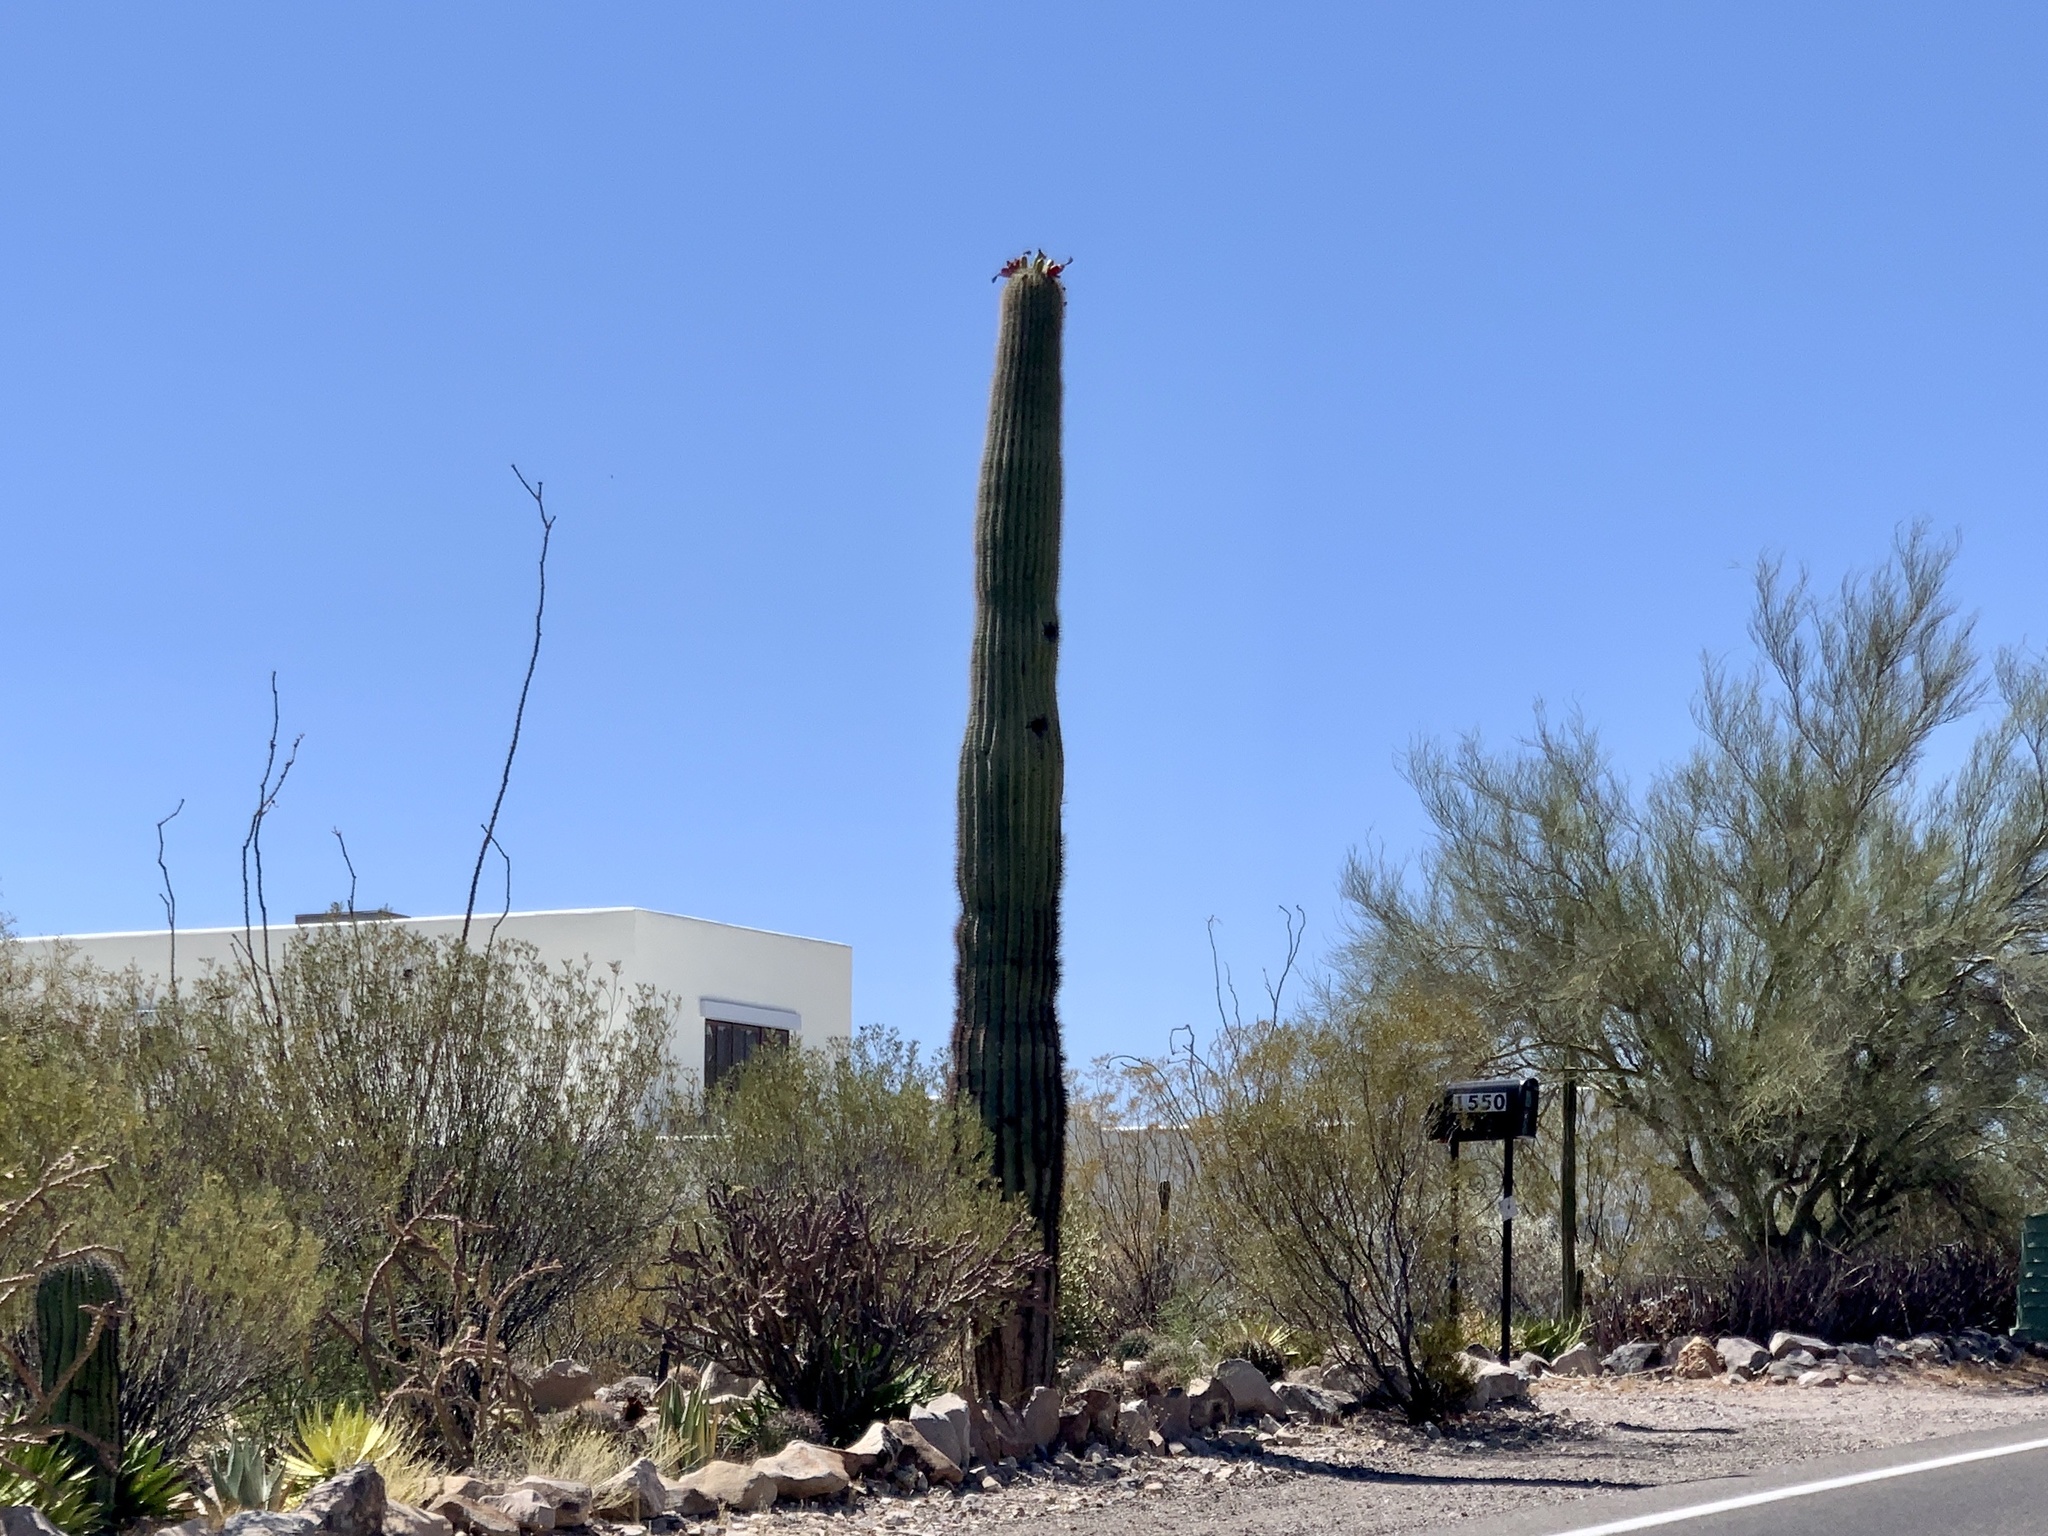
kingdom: Plantae
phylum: Tracheophyta
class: Magnoliopsida
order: Caryophyllales
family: Cactaceae
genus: Carnegiea
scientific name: Carnegiea gigantea
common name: Saguaro
